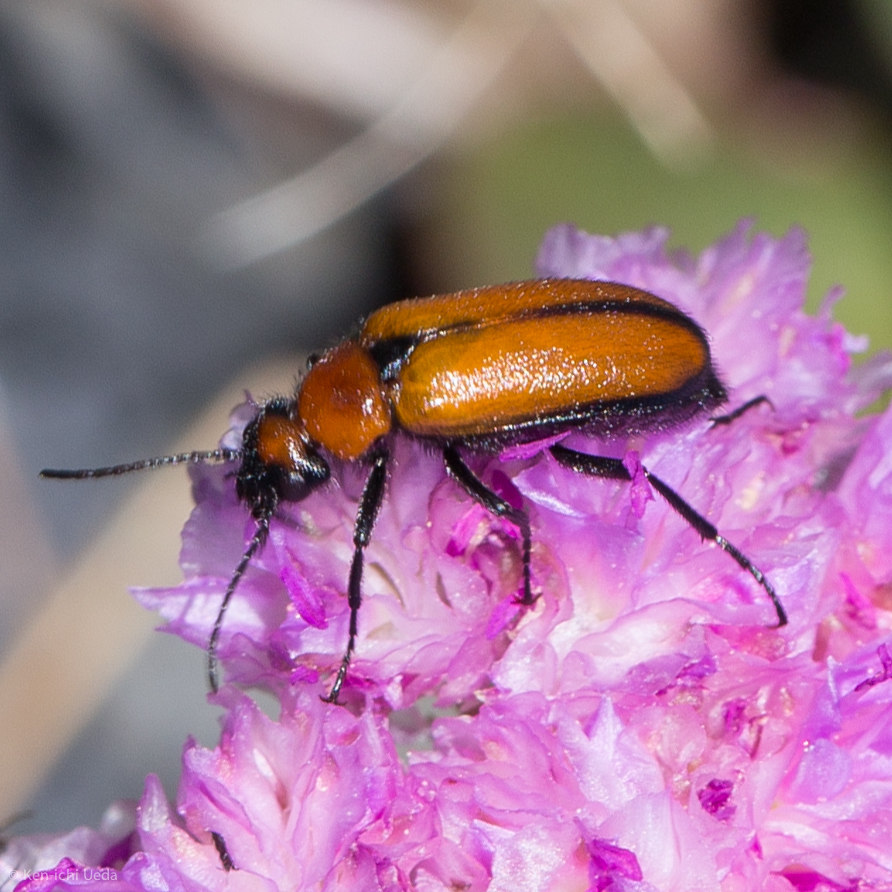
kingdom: Animalia
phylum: Arthropoda
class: Insecta
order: Coleoptera
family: Meloidae
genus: Nemognatha
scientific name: Nemognatha scutellaris
